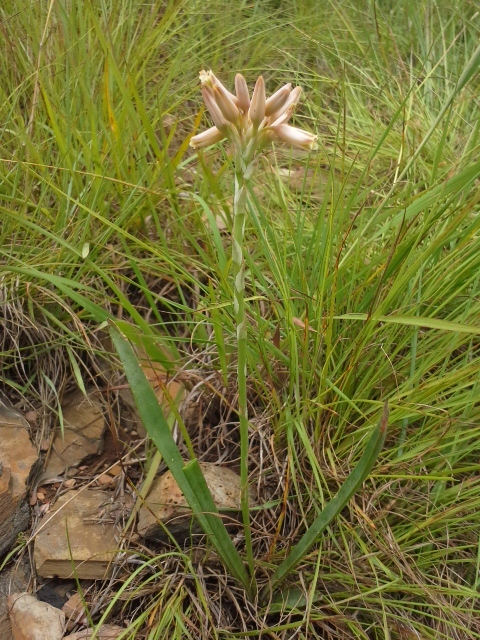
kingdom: Plantae
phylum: Tracheophyta
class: Liliopsida
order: Asparagales
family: Asphodelaceae
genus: Aloe
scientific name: Aloe minima
